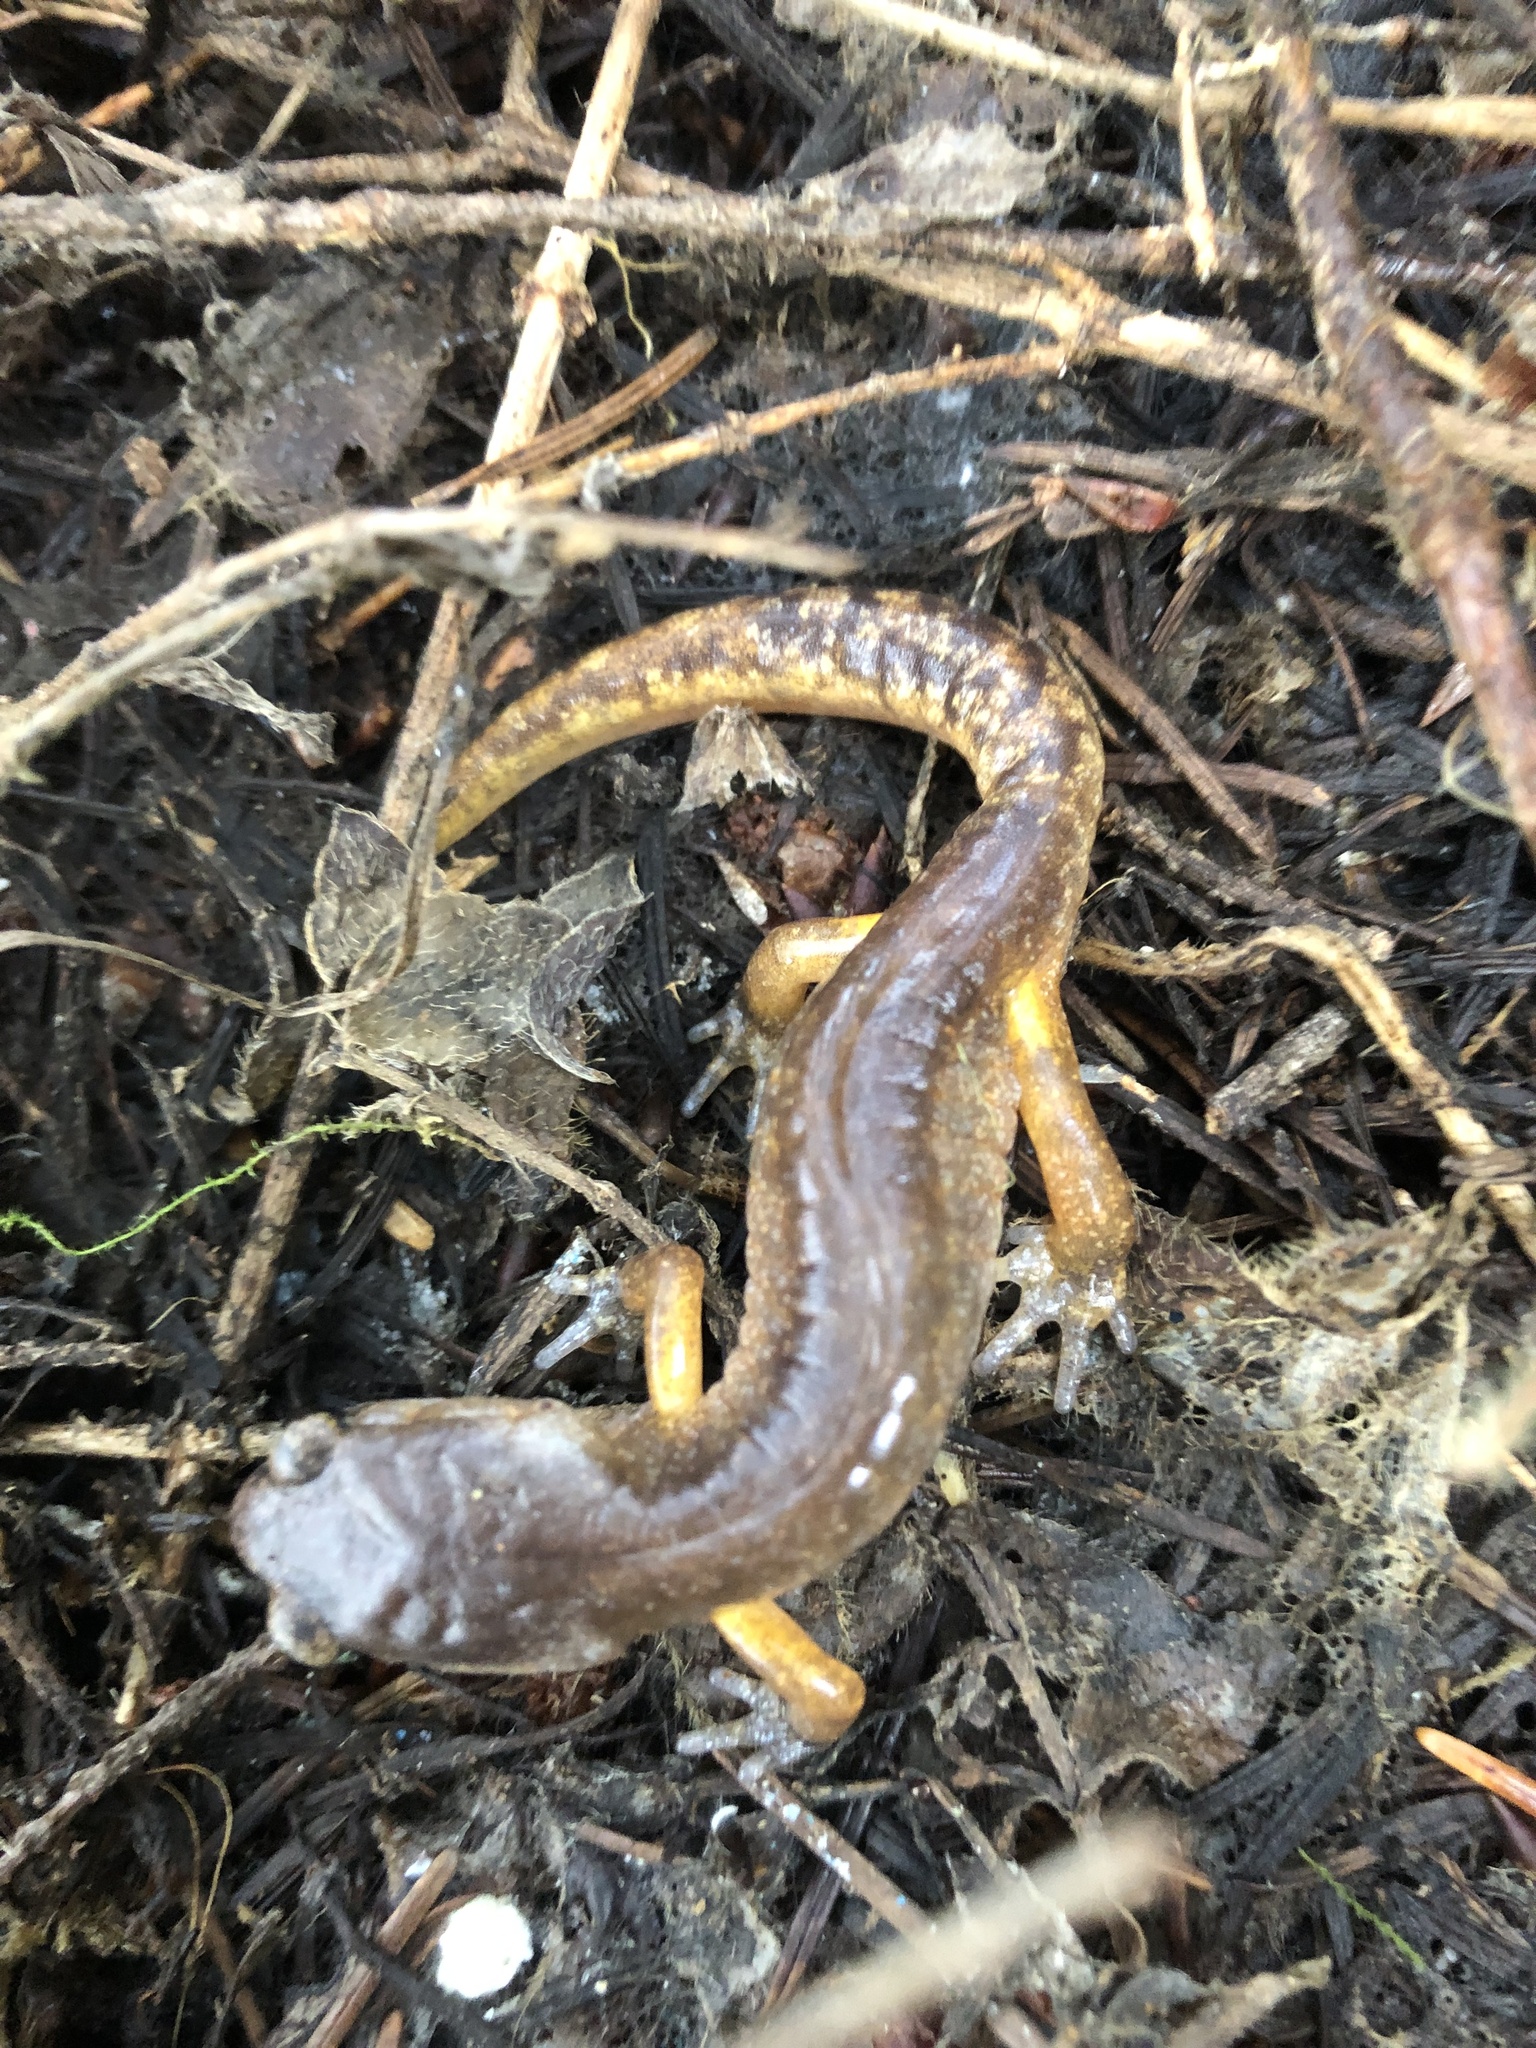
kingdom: Animalia
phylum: Chordata
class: Amphibia
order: Caudata
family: Plethodontidae
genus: Ensatina
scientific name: Ensatina eschscholtzii
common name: Ensatina
